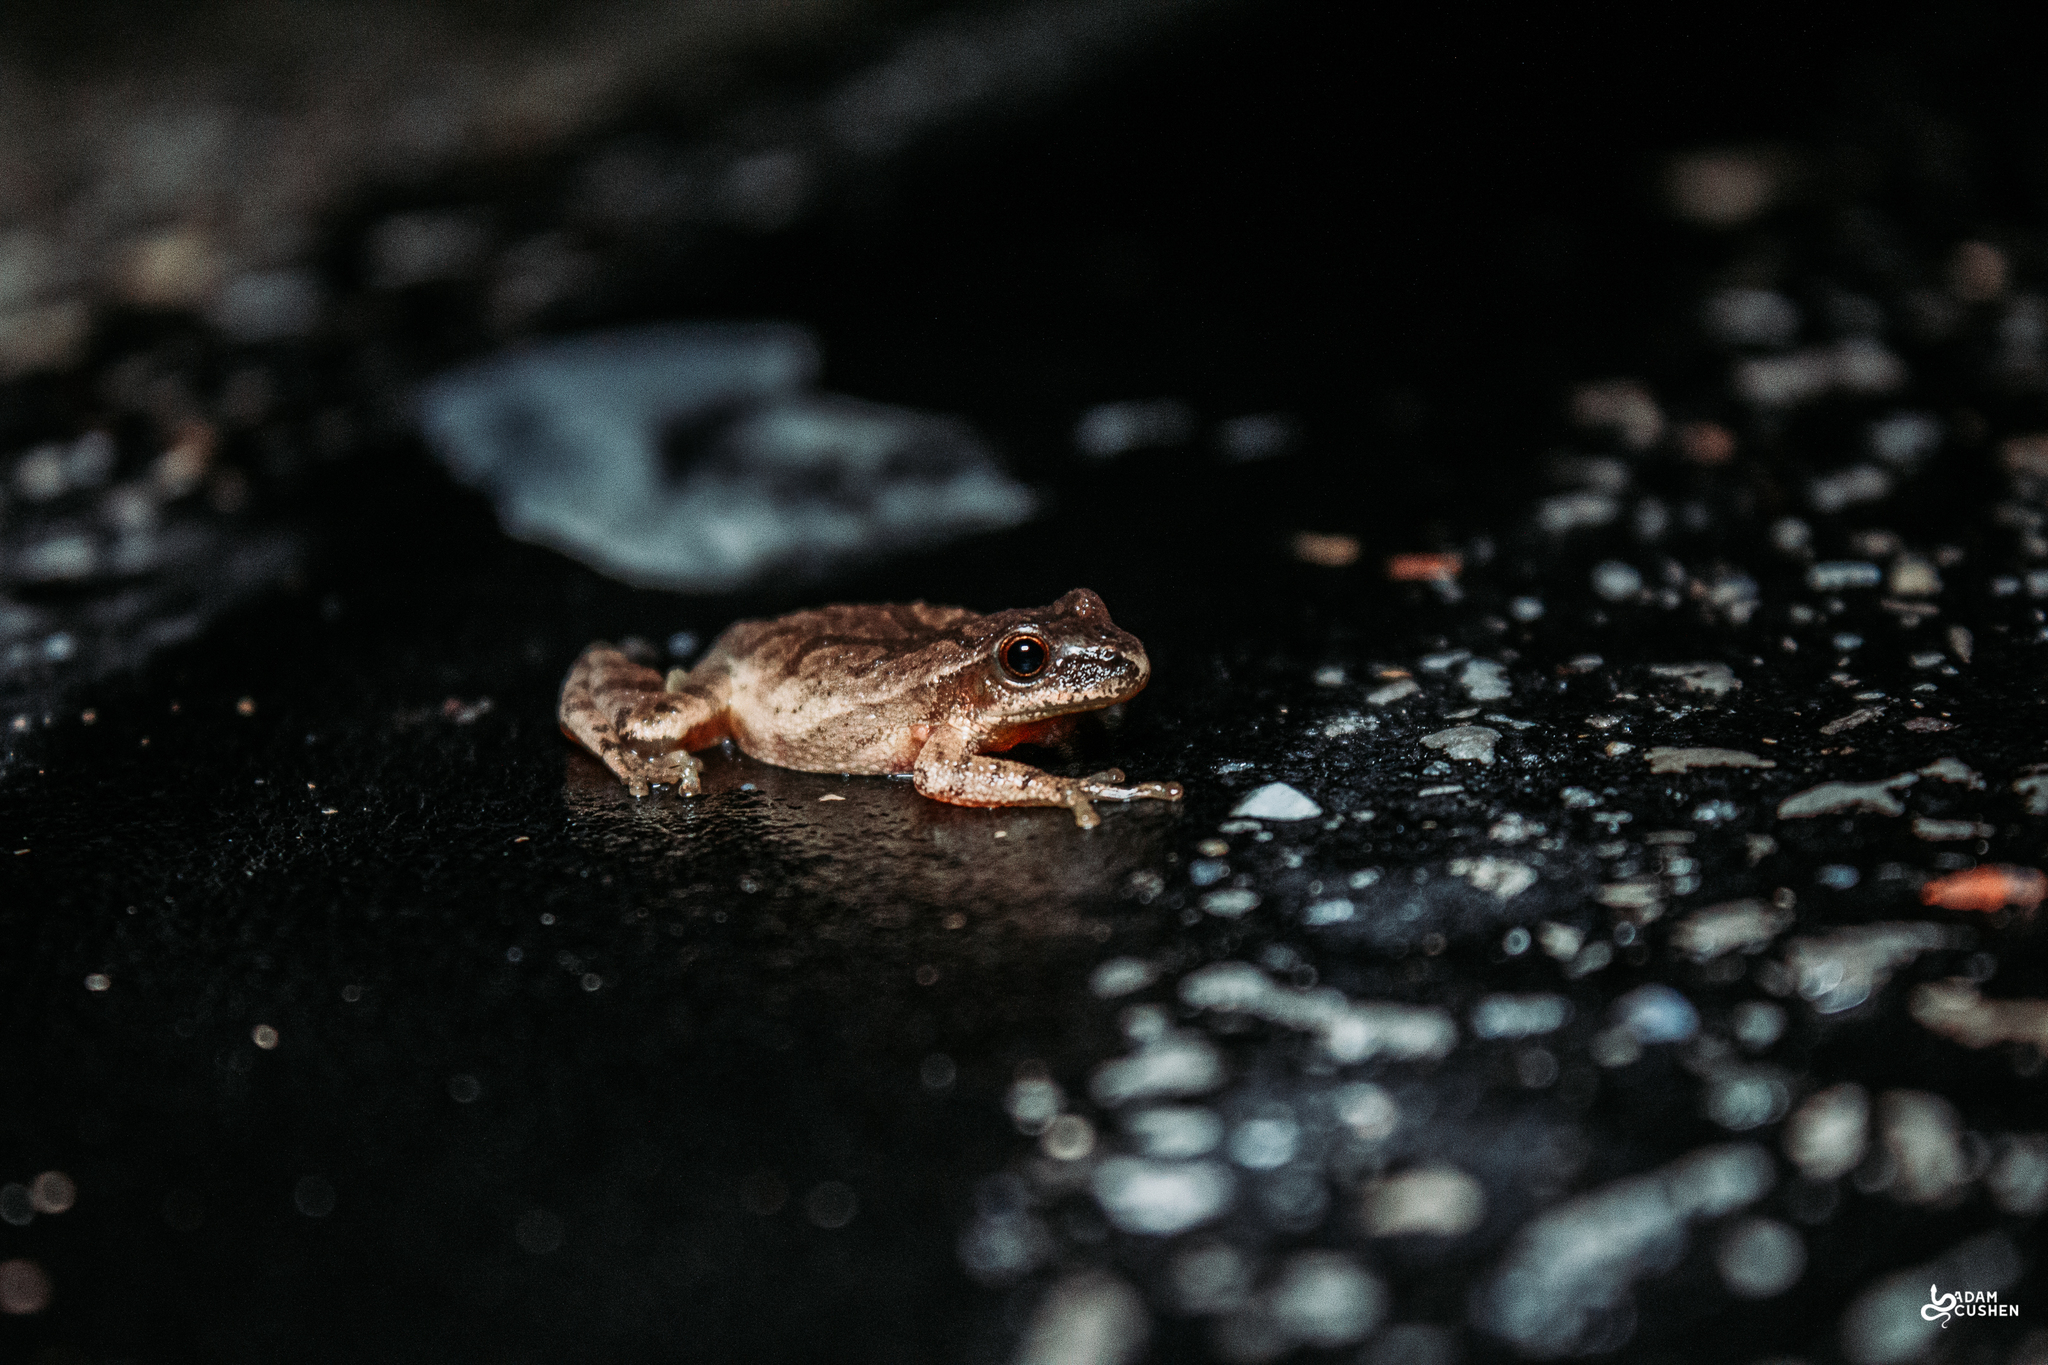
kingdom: Animalia
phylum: Chordata
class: Amphibia
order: Anura
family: Hylidae
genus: Pseudacris
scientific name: Pseudacris crucifer
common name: Spring peeper
